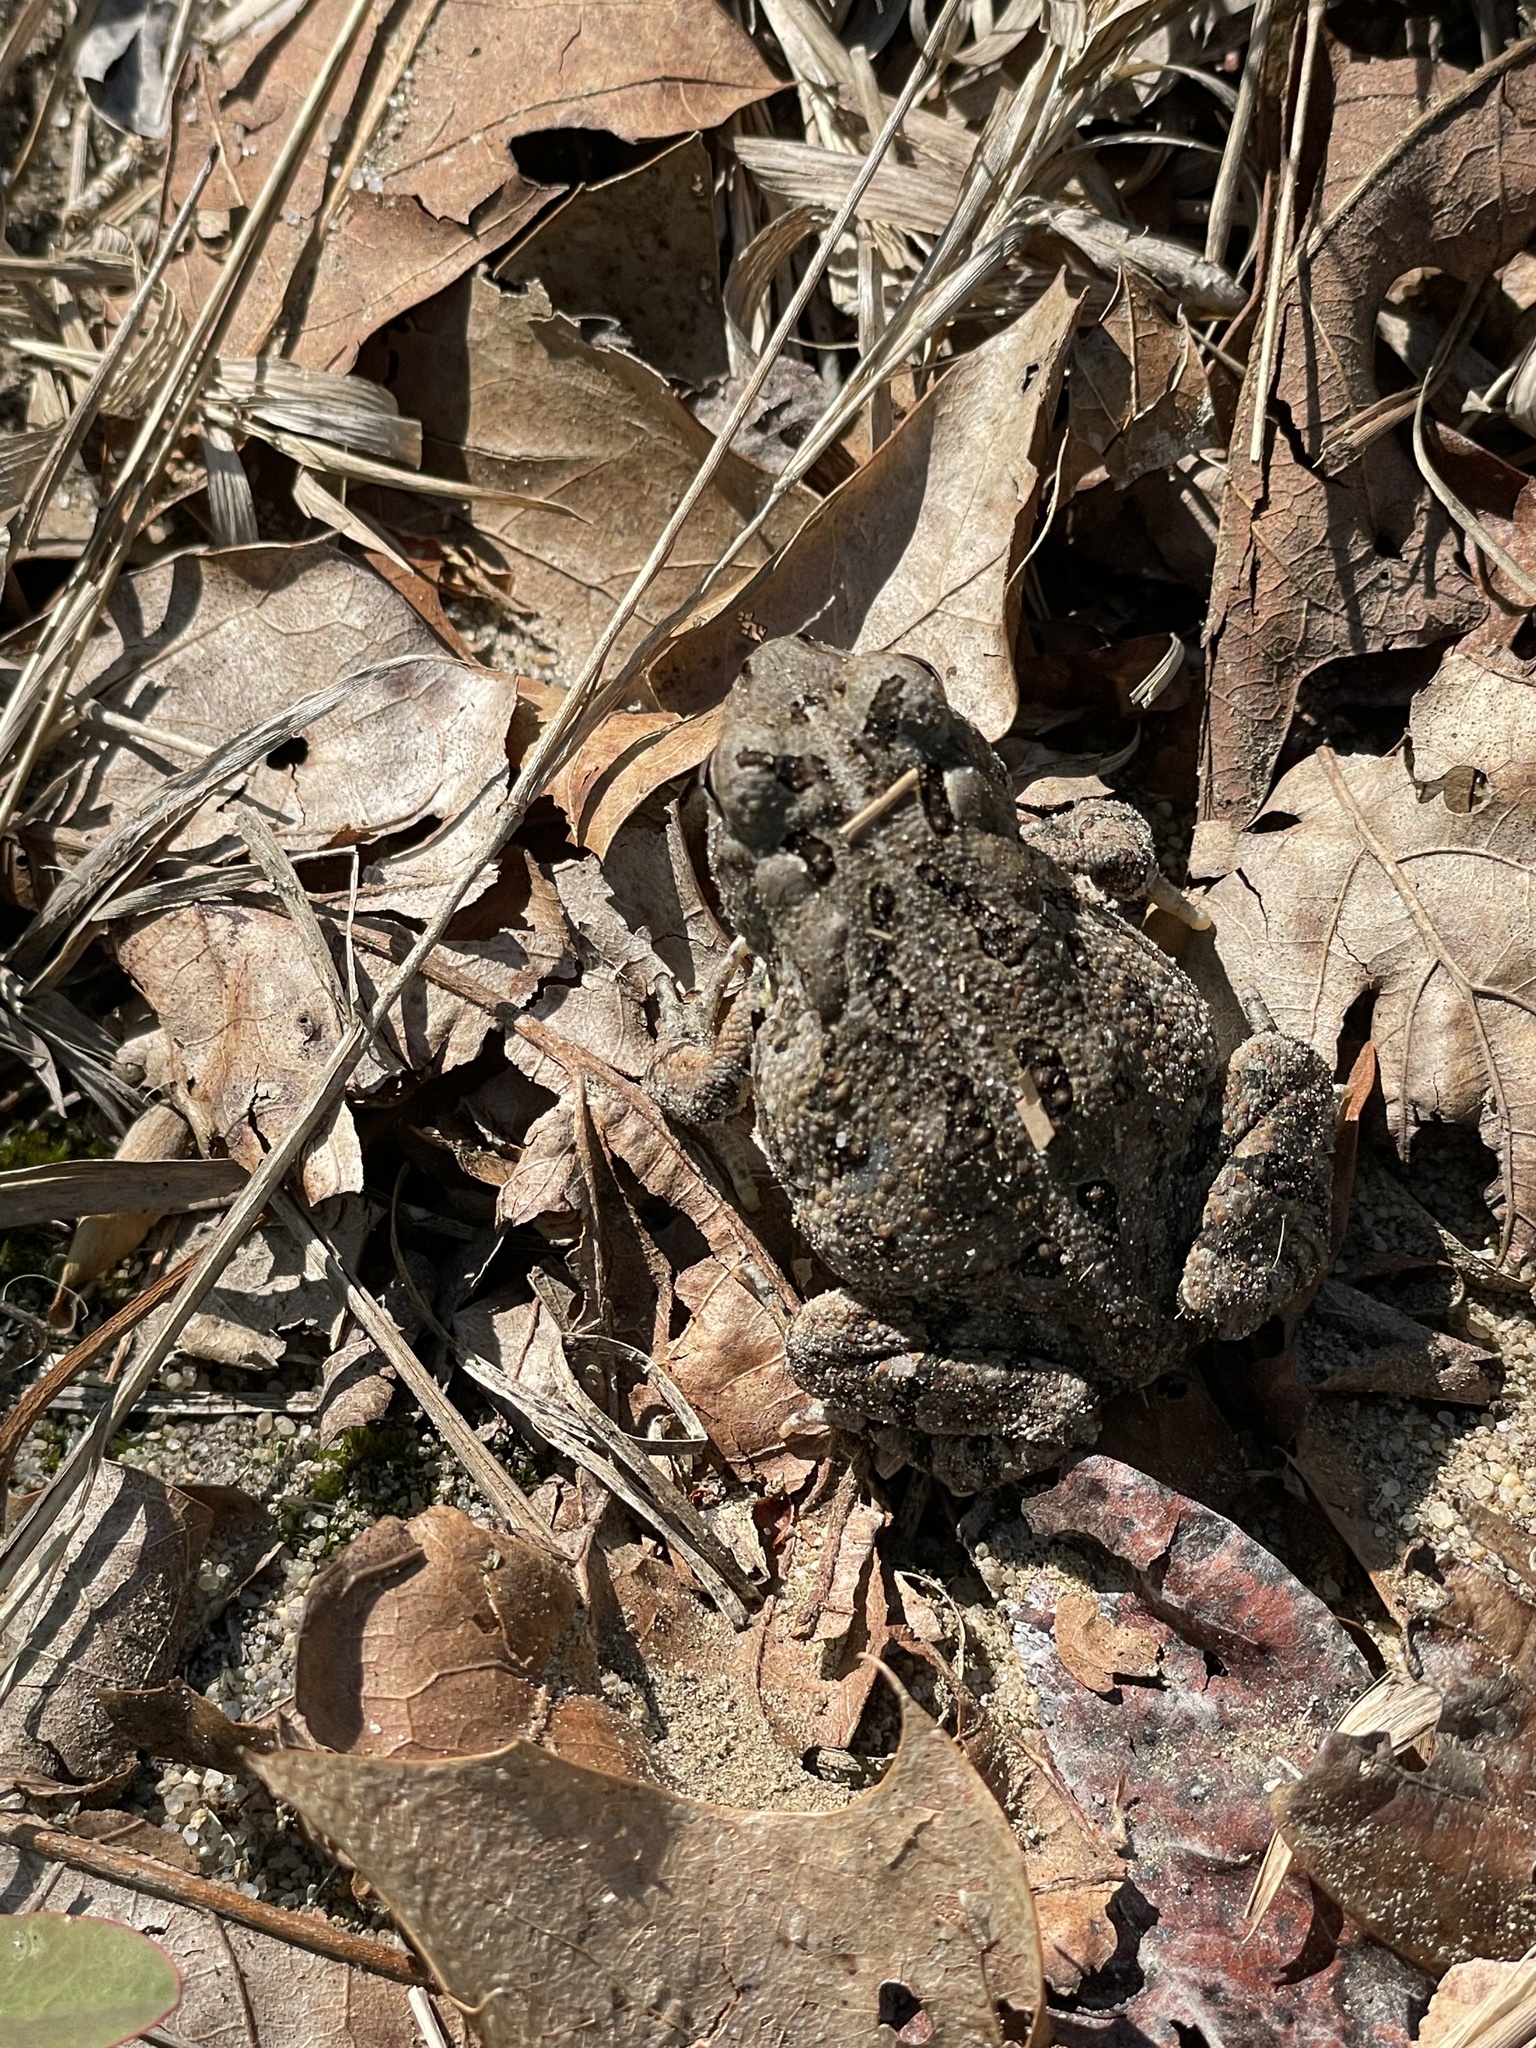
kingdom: Animalia
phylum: Chordata
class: Amphibia
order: Anura
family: Bufonidae
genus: Anaxyrus
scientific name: Anaxyrus fowleri
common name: Fowler's toad
